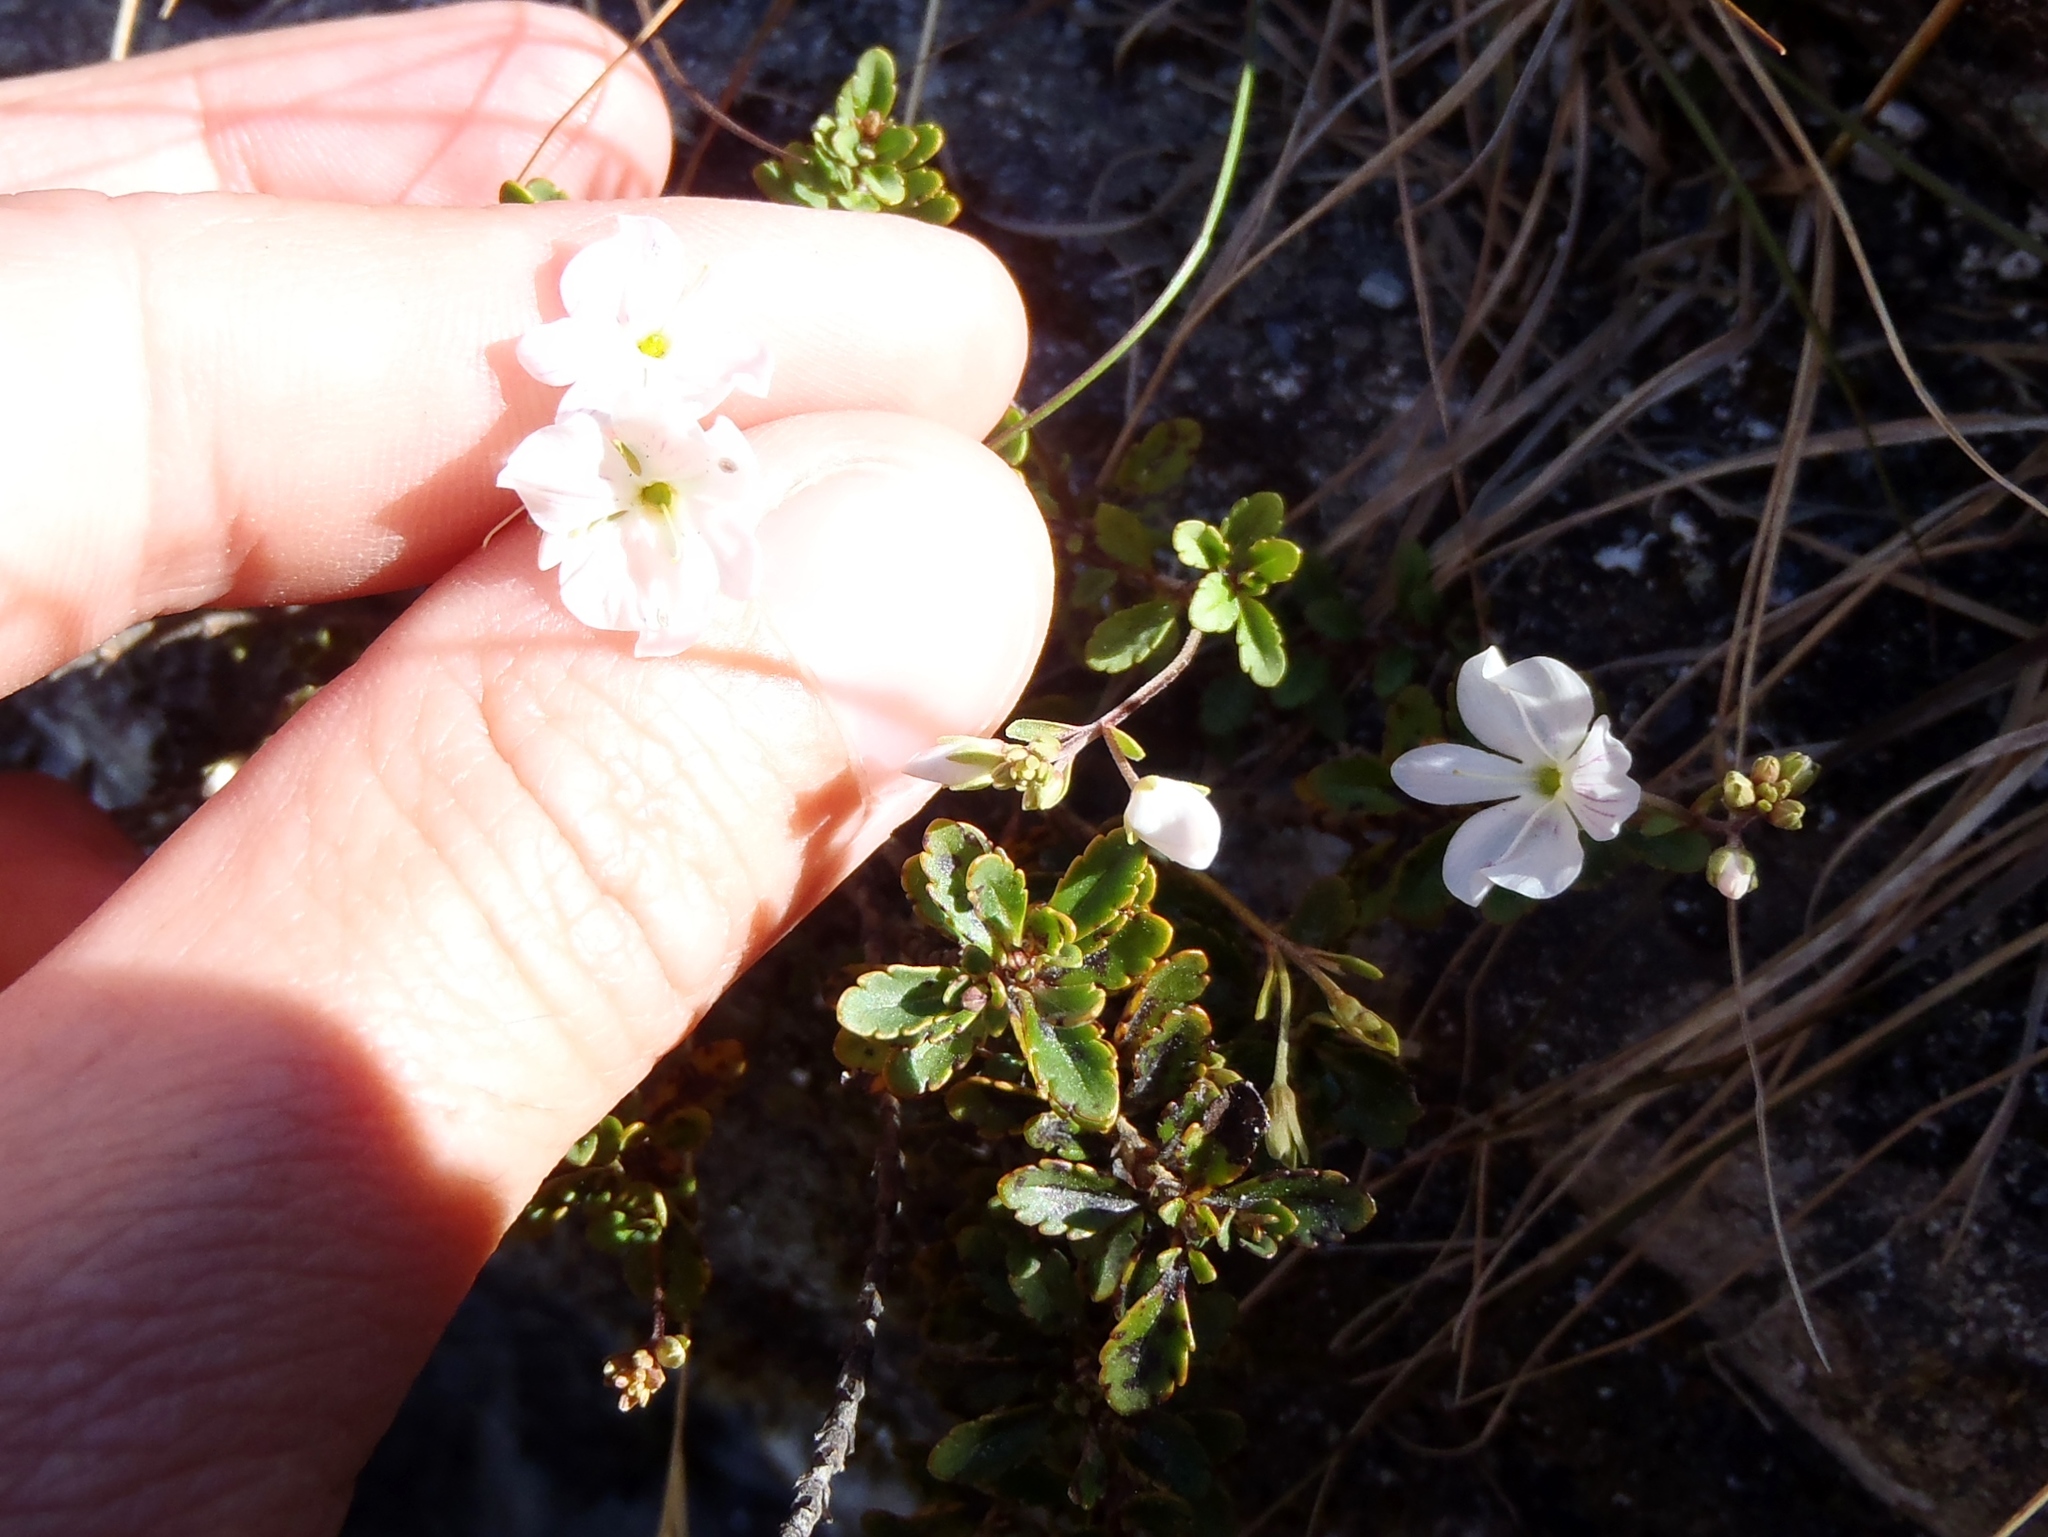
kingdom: Plantae
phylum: Tracheophyta
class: Magnoliopsida
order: Lamiales
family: Plantaginaceae
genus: Veronica
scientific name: Veronica lyallii
